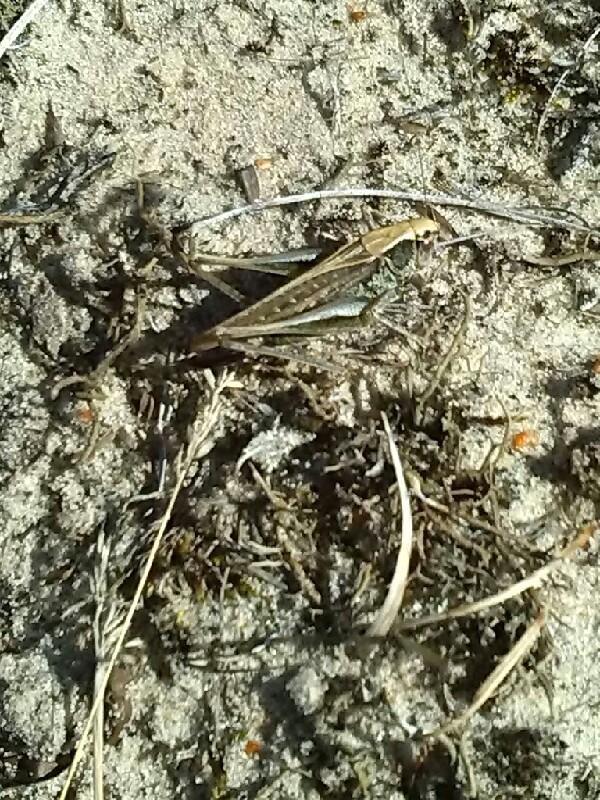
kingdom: Animalia
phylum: Arthropoda
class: Insecta
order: Orthoptera
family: Tettigoniidae
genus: Platycleis
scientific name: Platycleis albopunctata
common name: Grey bush-cricket
